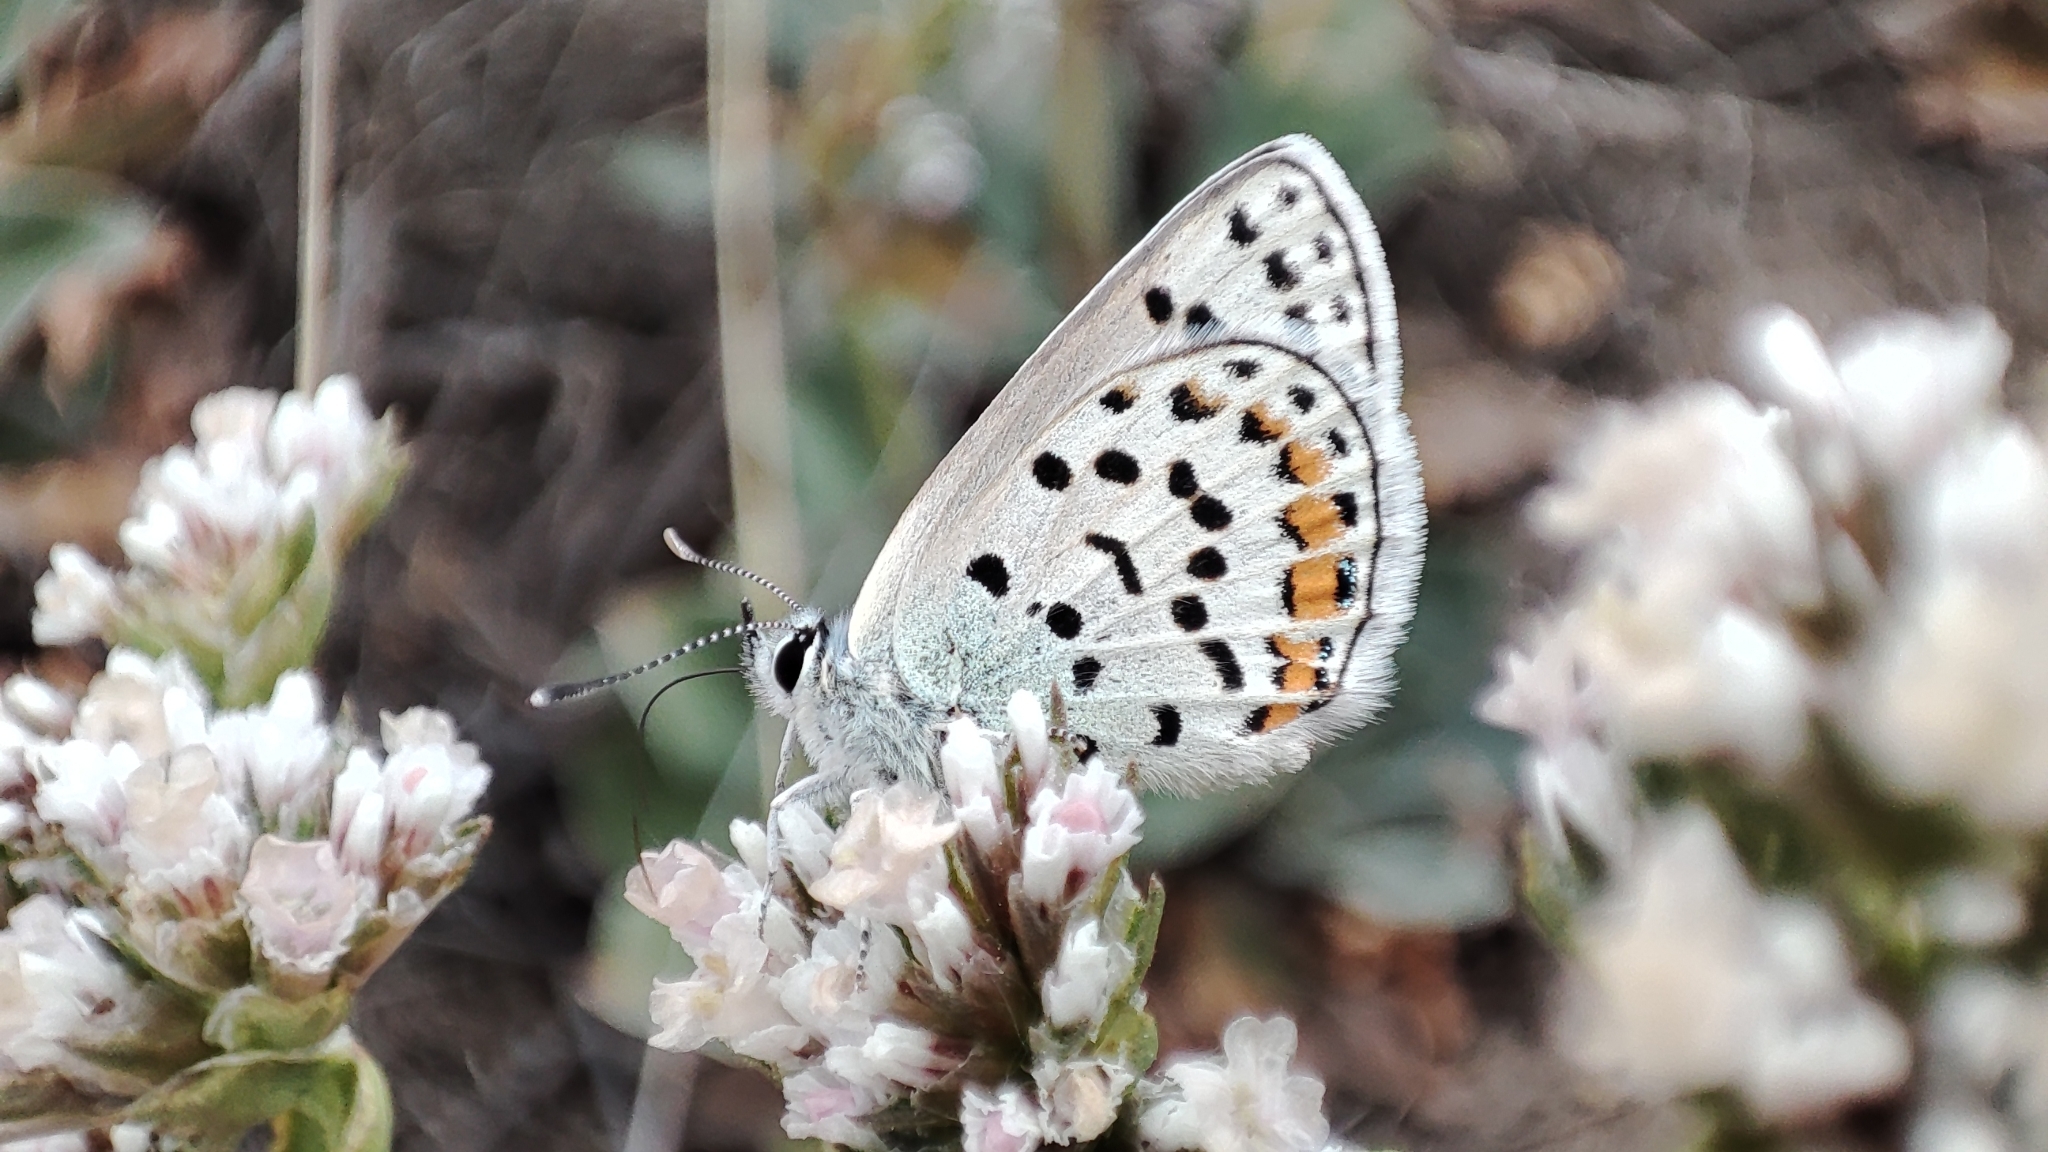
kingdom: Animalia
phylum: Arthropoda
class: Insecta
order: Lepidoptera
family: Lycaenidae
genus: Glabroculus
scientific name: Glabroculus cyane
